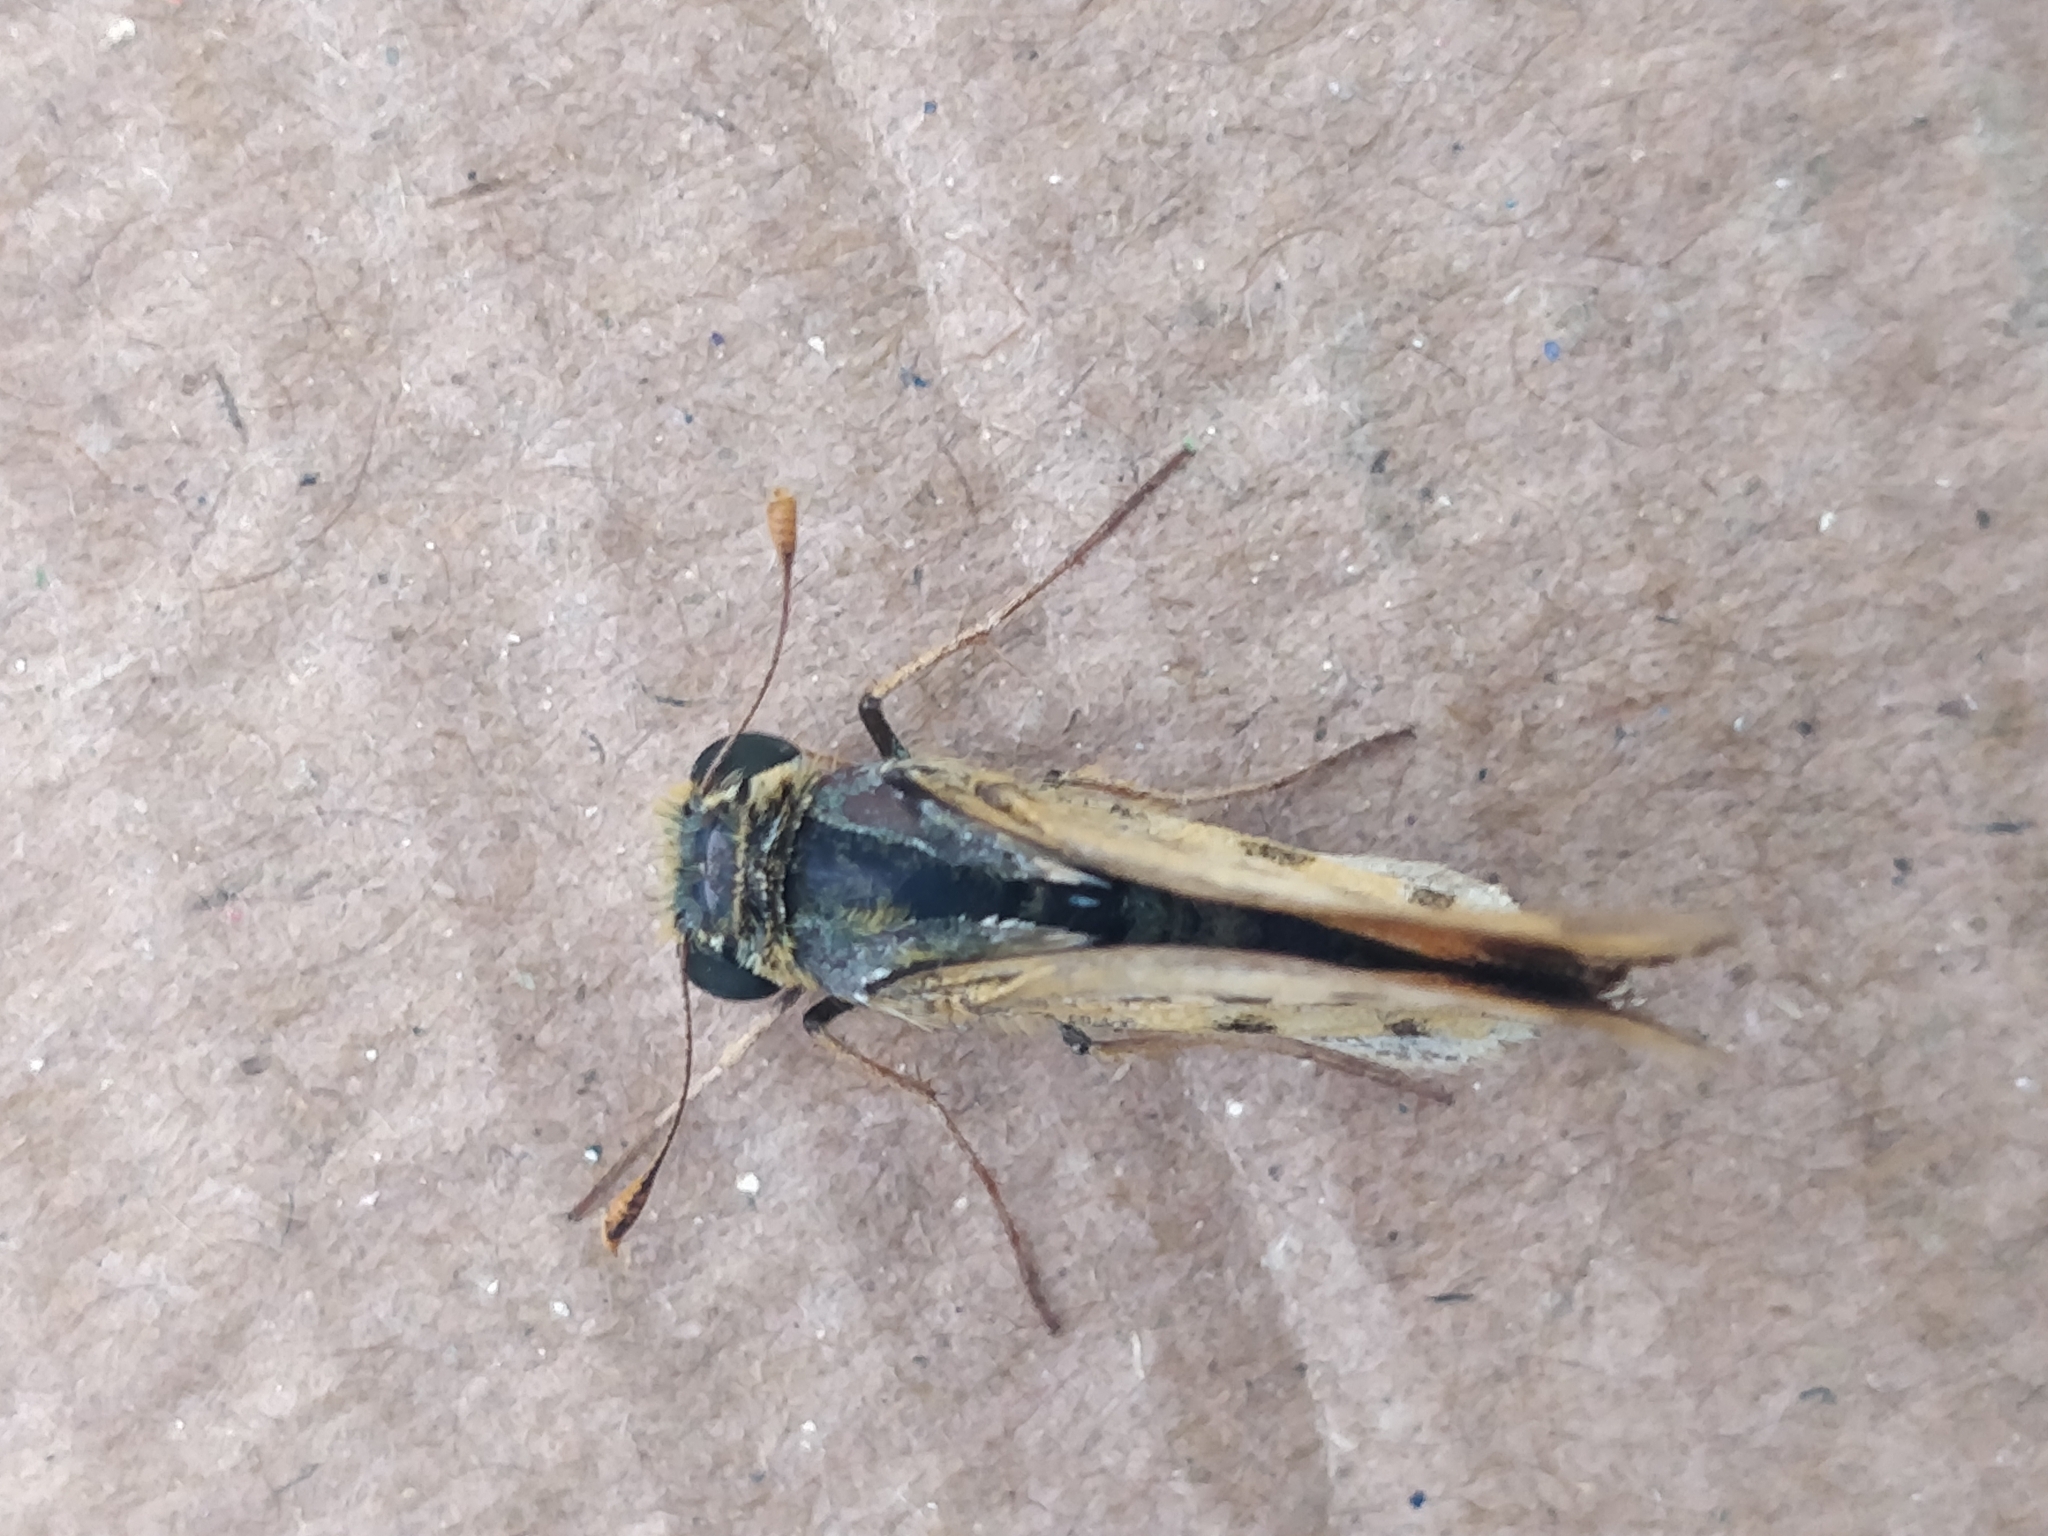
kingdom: Animalia
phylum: Arthropoda
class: Insecta
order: Lepidoptera
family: Hesperiidae
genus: Hylephila
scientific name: Hylephila phyleus
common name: Fiery skipper
